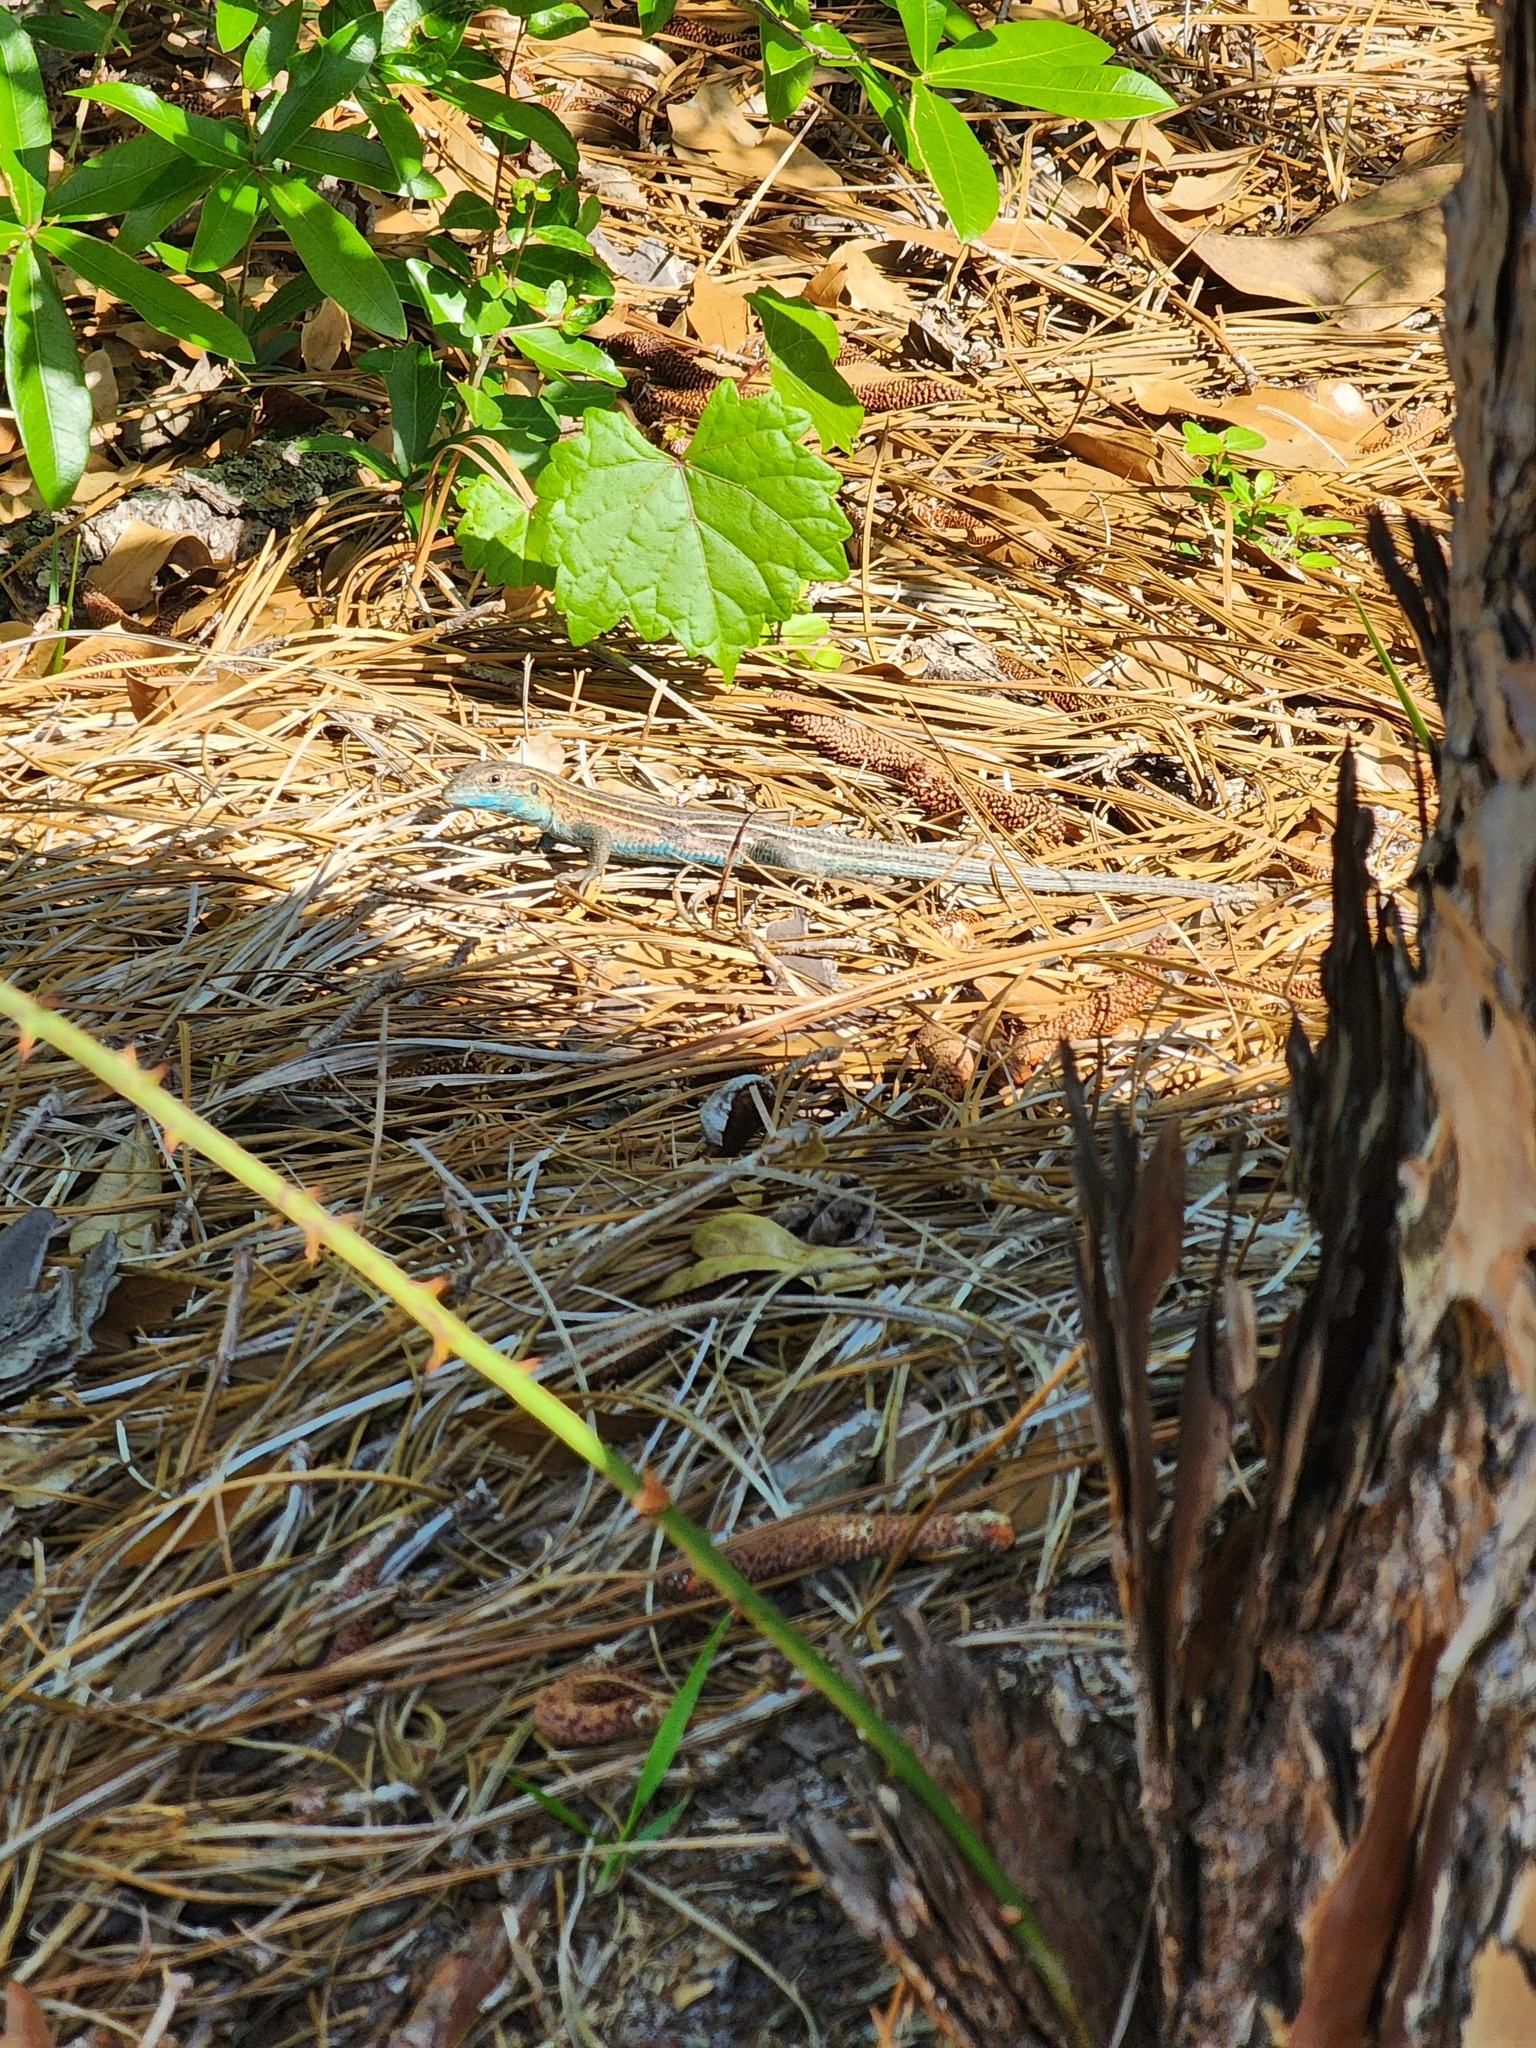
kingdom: Animalia
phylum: Chordata
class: Squamata
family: Teiidae
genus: Aspidoscelis
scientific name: Aspidoscelis sexlineatus
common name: Six-lined racerunner
